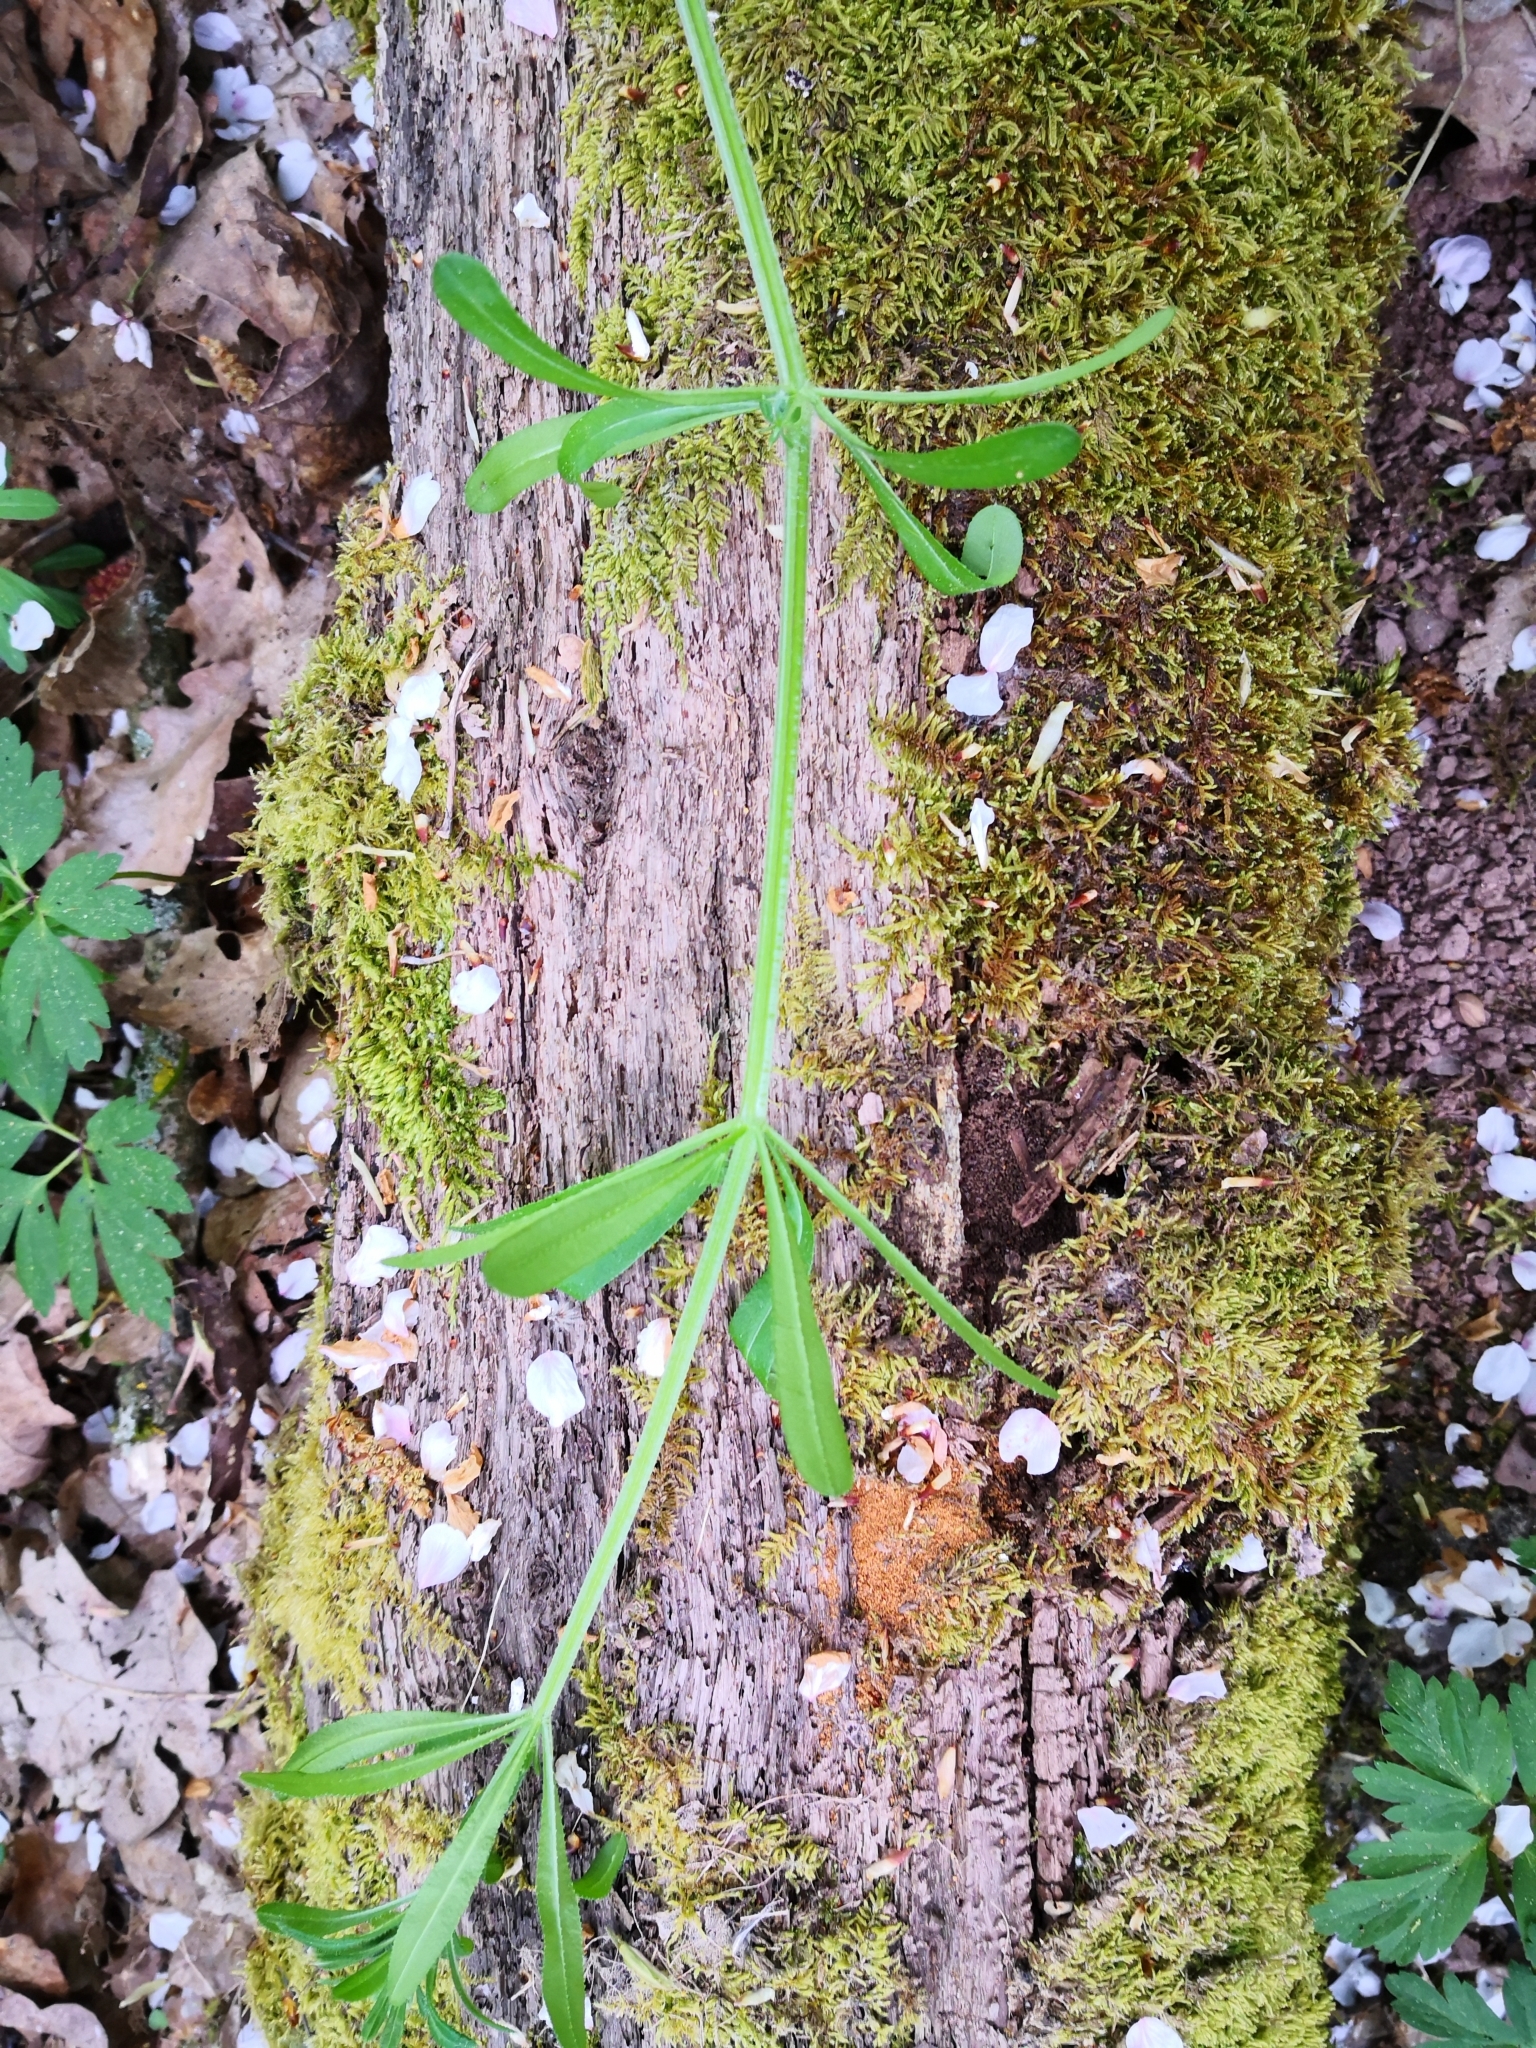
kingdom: Plantae
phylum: Tracheophyta
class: Magnoliopsida
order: Gentianales
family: Rubiaceae
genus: Galium
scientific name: Galium aparine
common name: Cleavers
